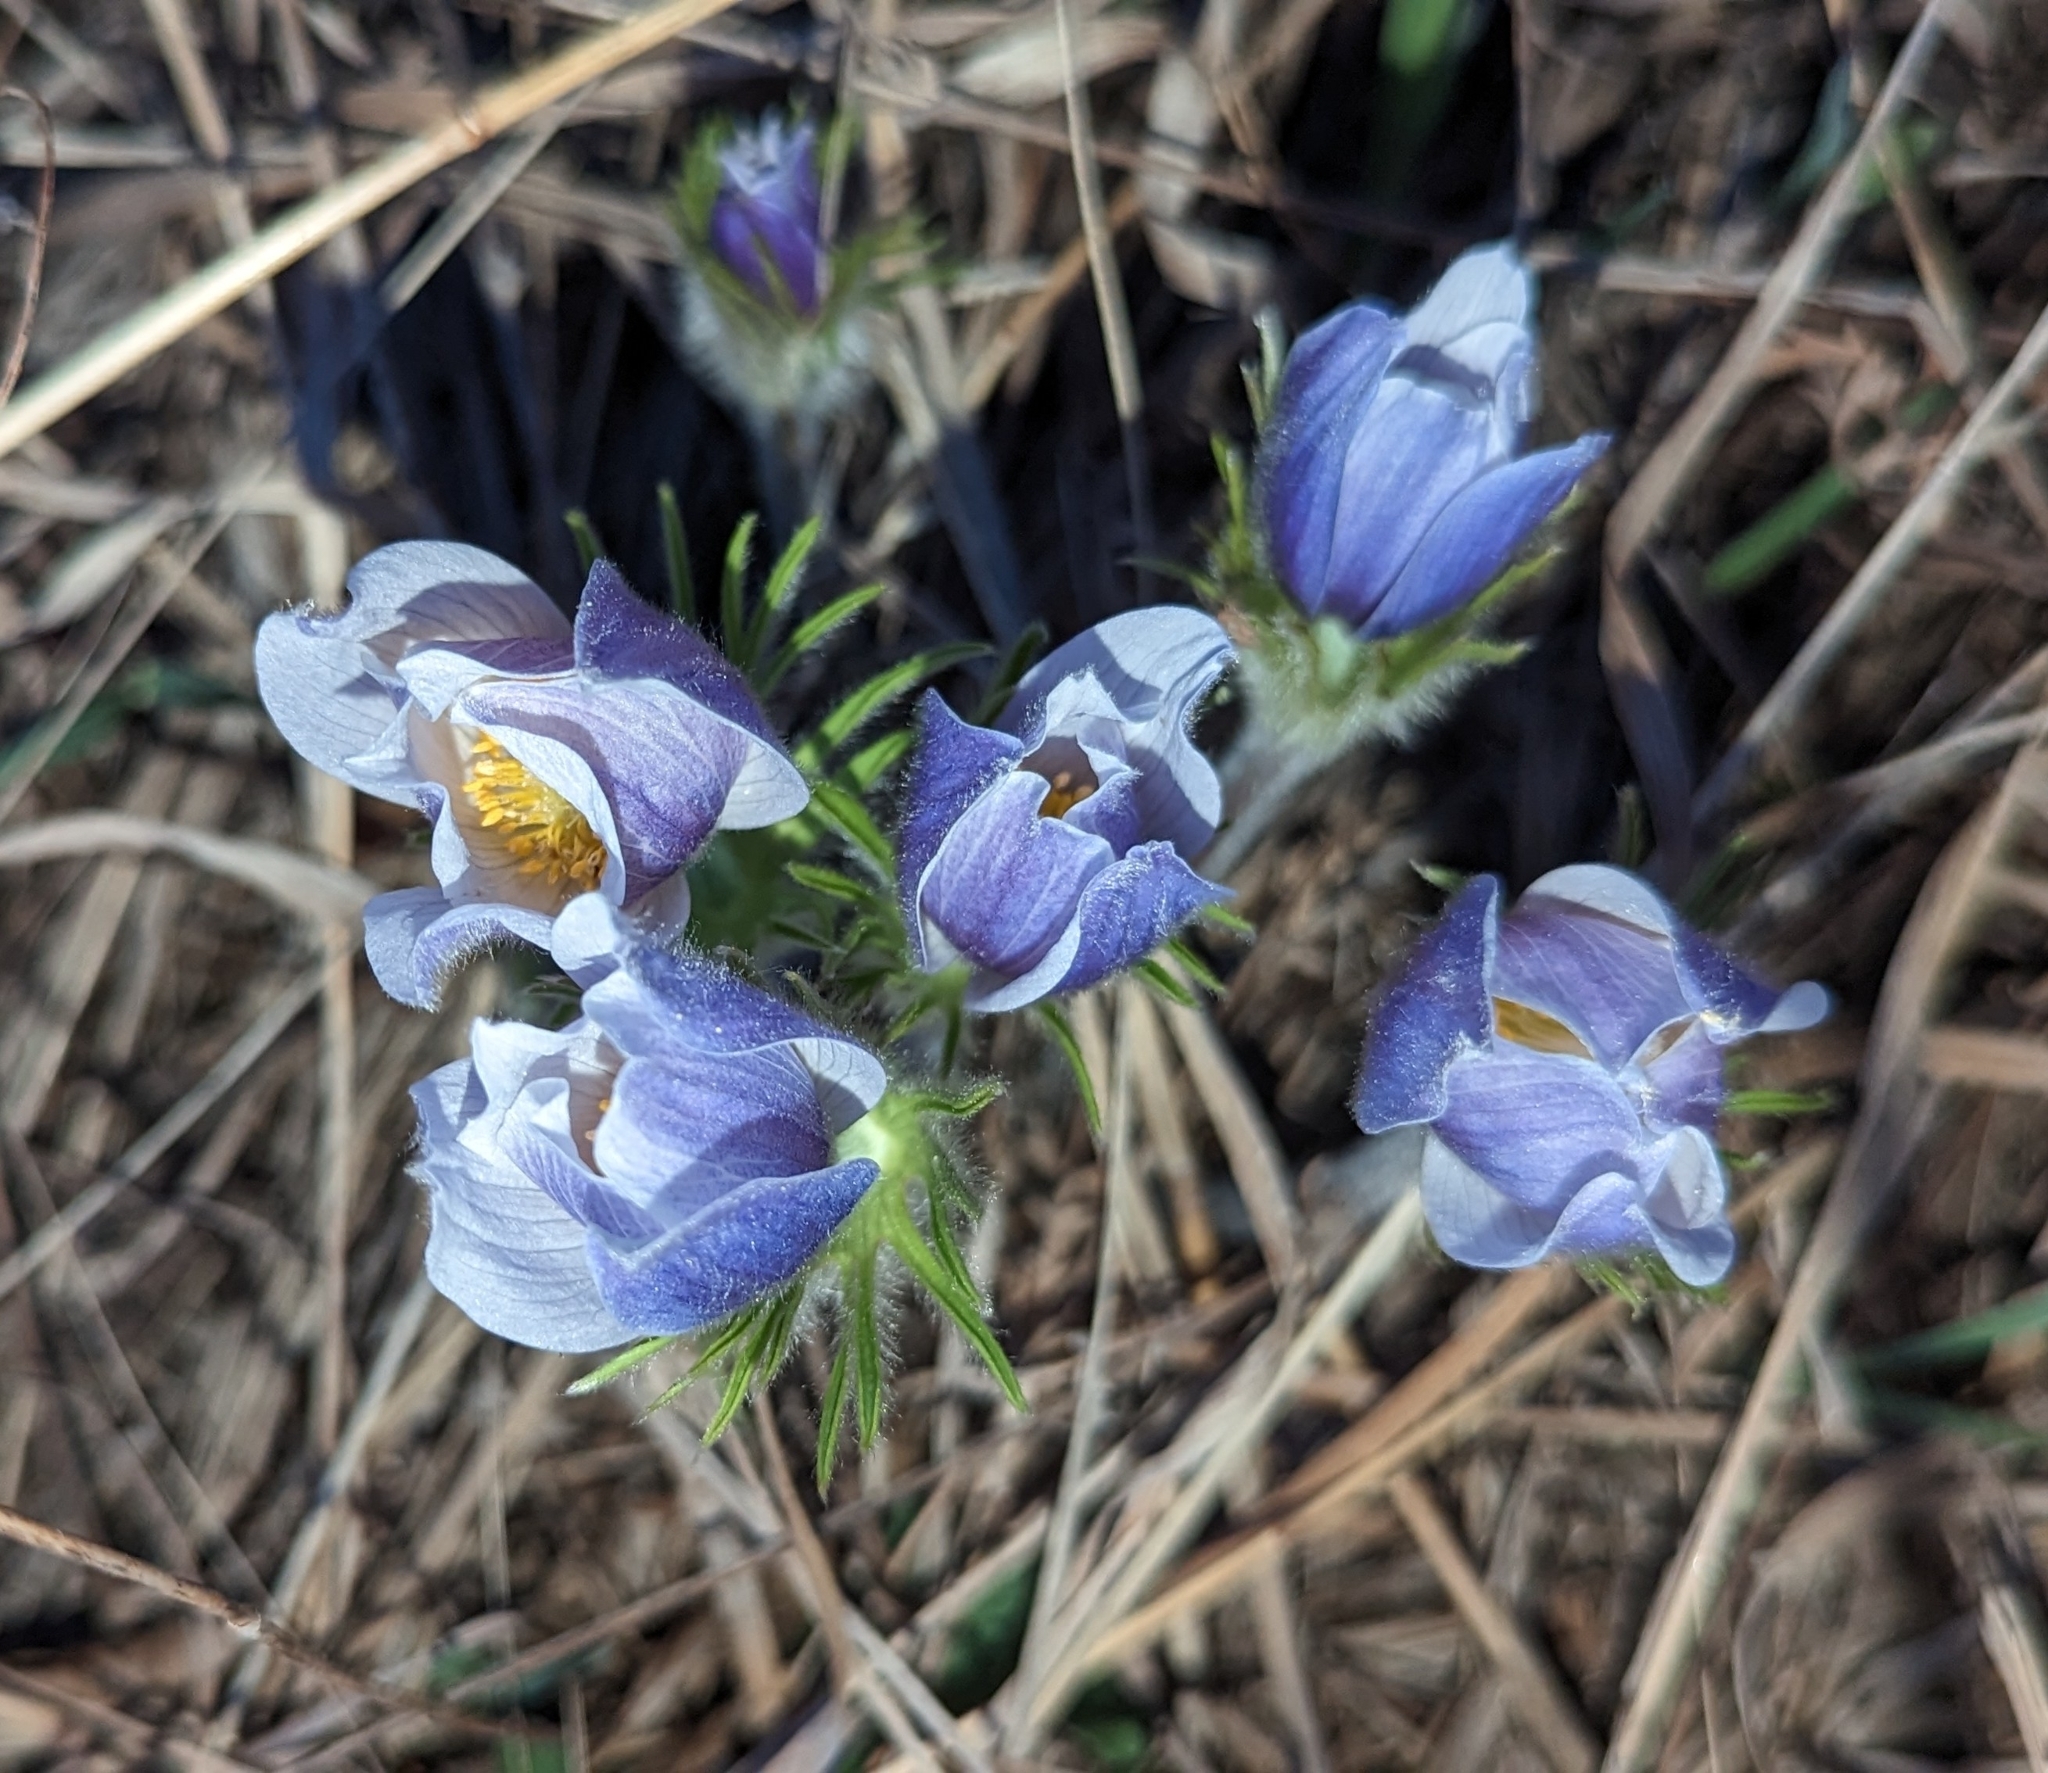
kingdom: Plantae
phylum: Tracheophyta
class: Magnoliopsida
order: Ranunculales
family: Ranunculaceae
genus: Pulsatilla
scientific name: Pulsatilla nuttalliana
